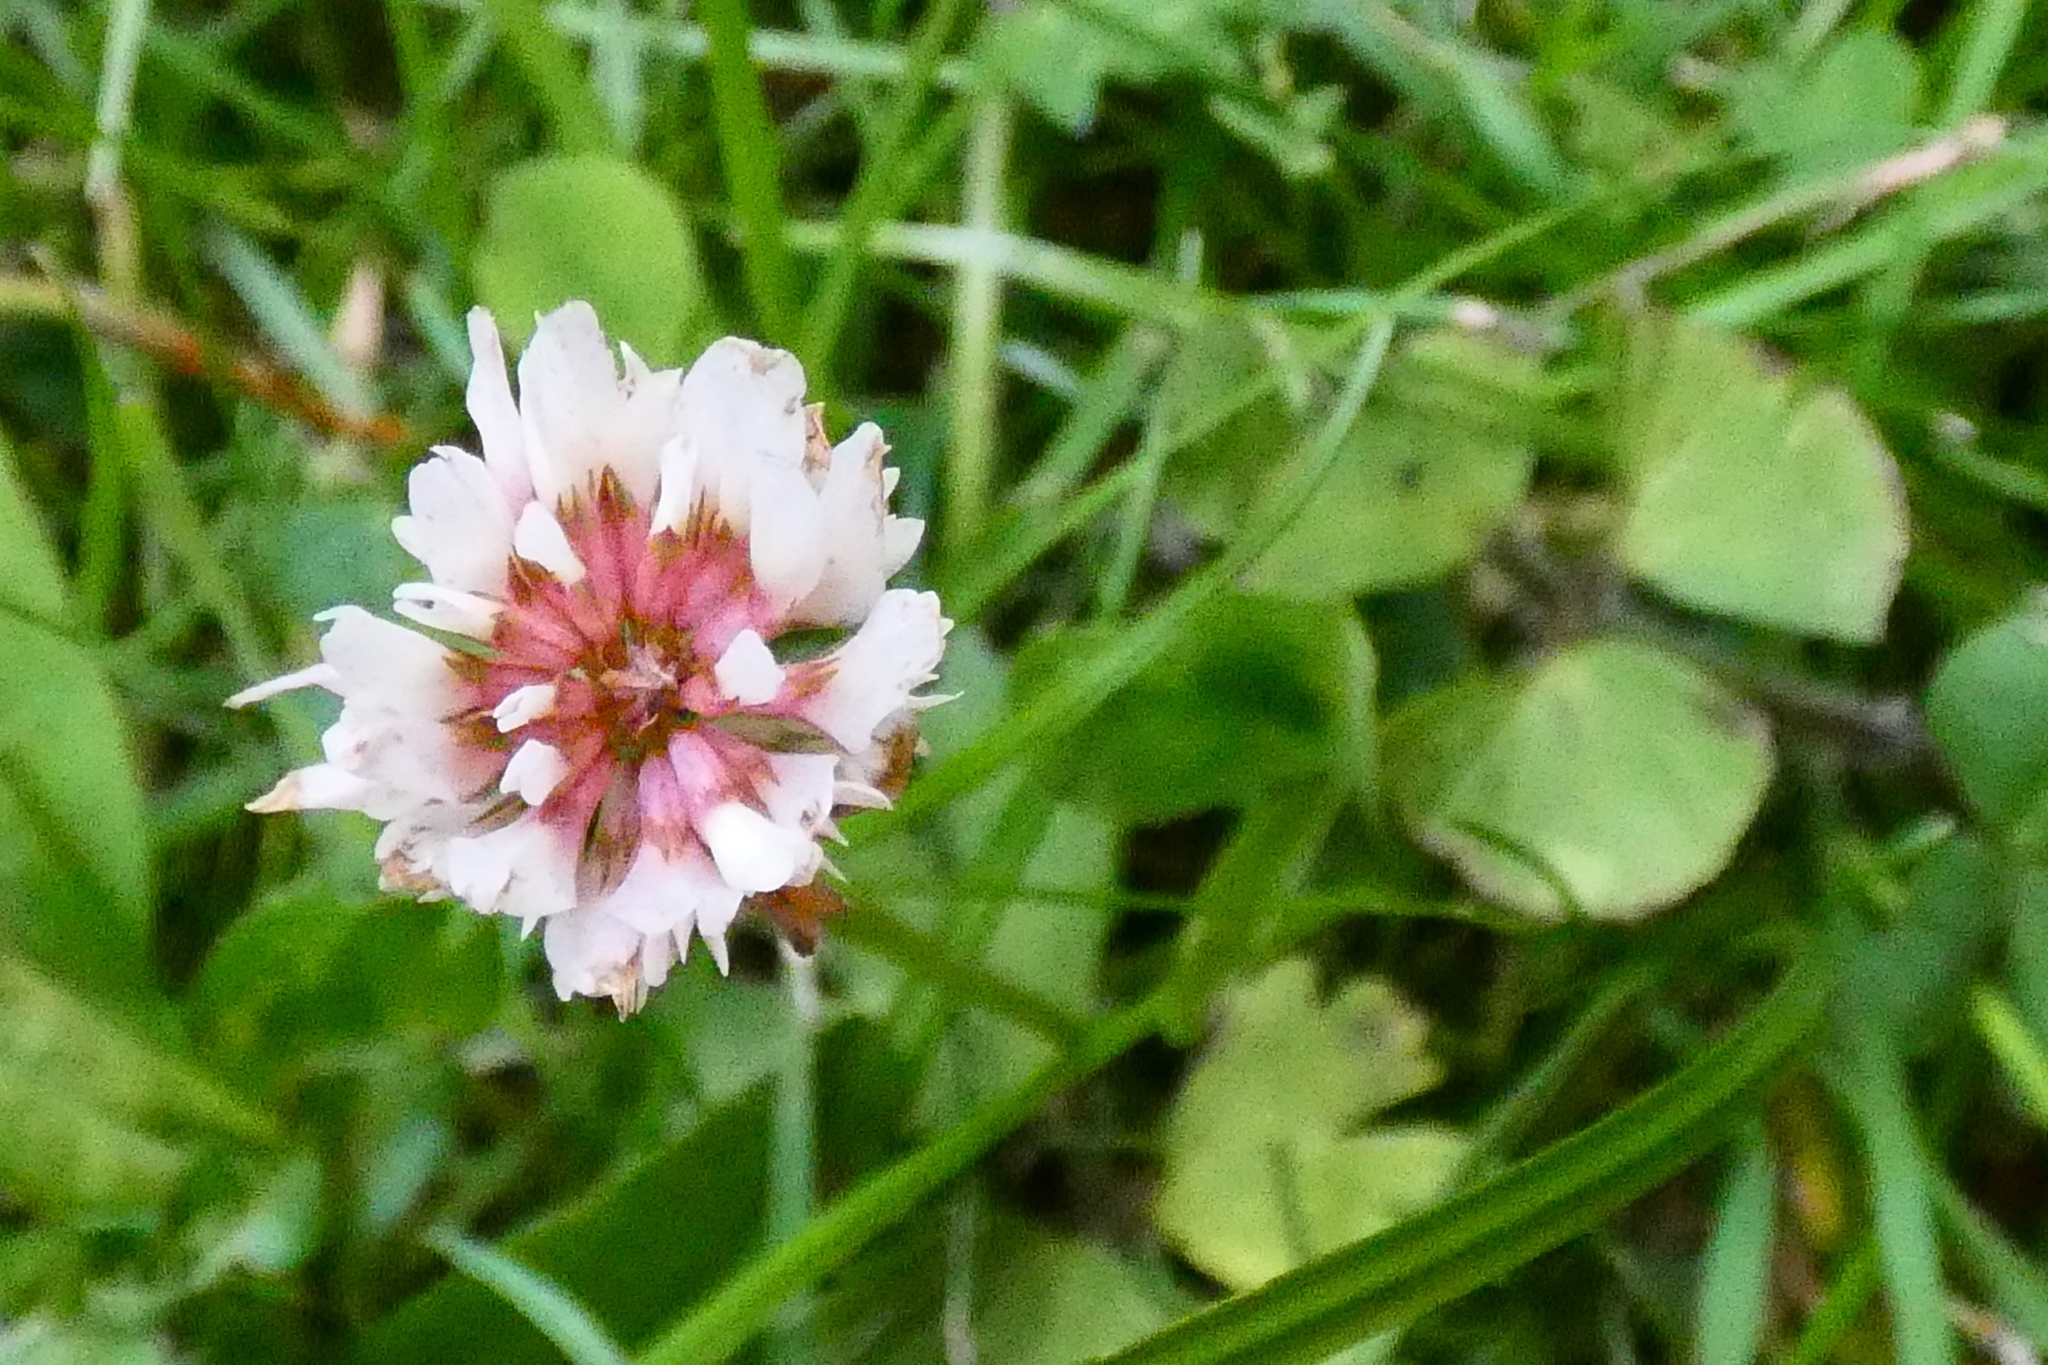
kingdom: Plantae
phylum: Tracheophyta
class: Magnoliopsida
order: Fabales
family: Fabaceae
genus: Trifolium
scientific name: Trifolium repens
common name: White clover
